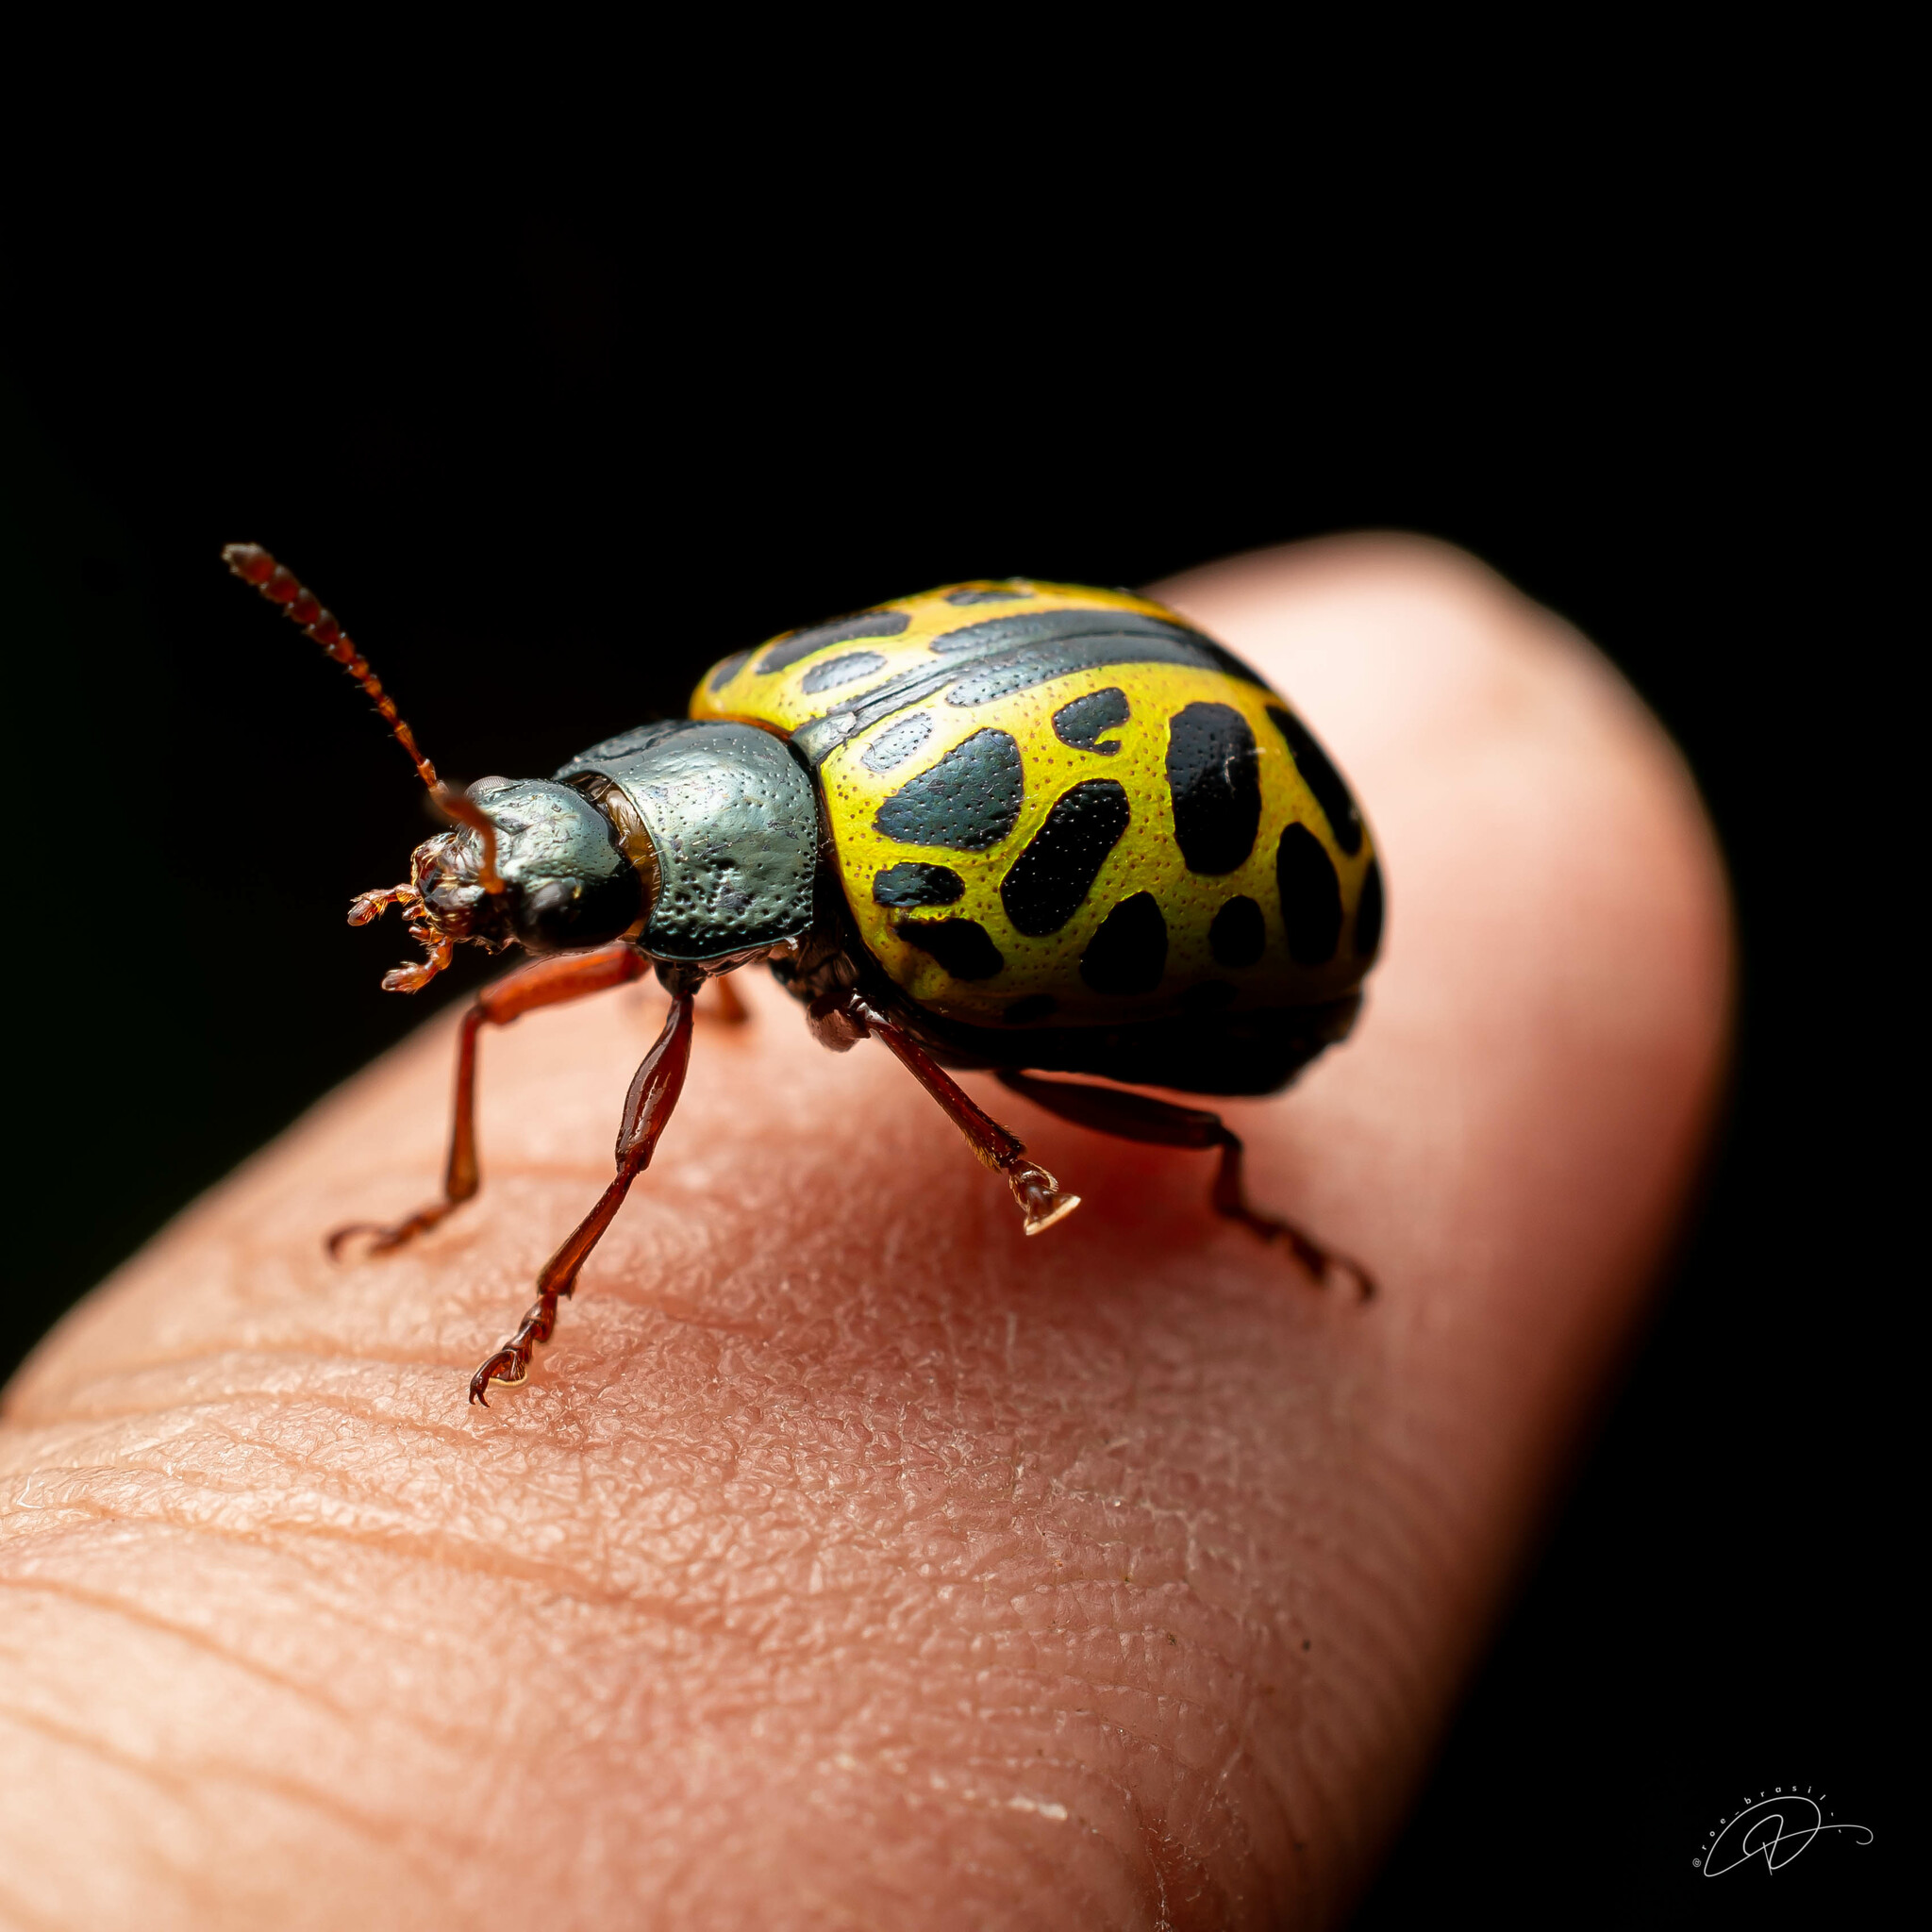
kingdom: Animalia
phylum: Arthropoda
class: Insecta
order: Coleoptera
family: Chrysomelidae
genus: Calligrapha
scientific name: Calligrapha polyspila
